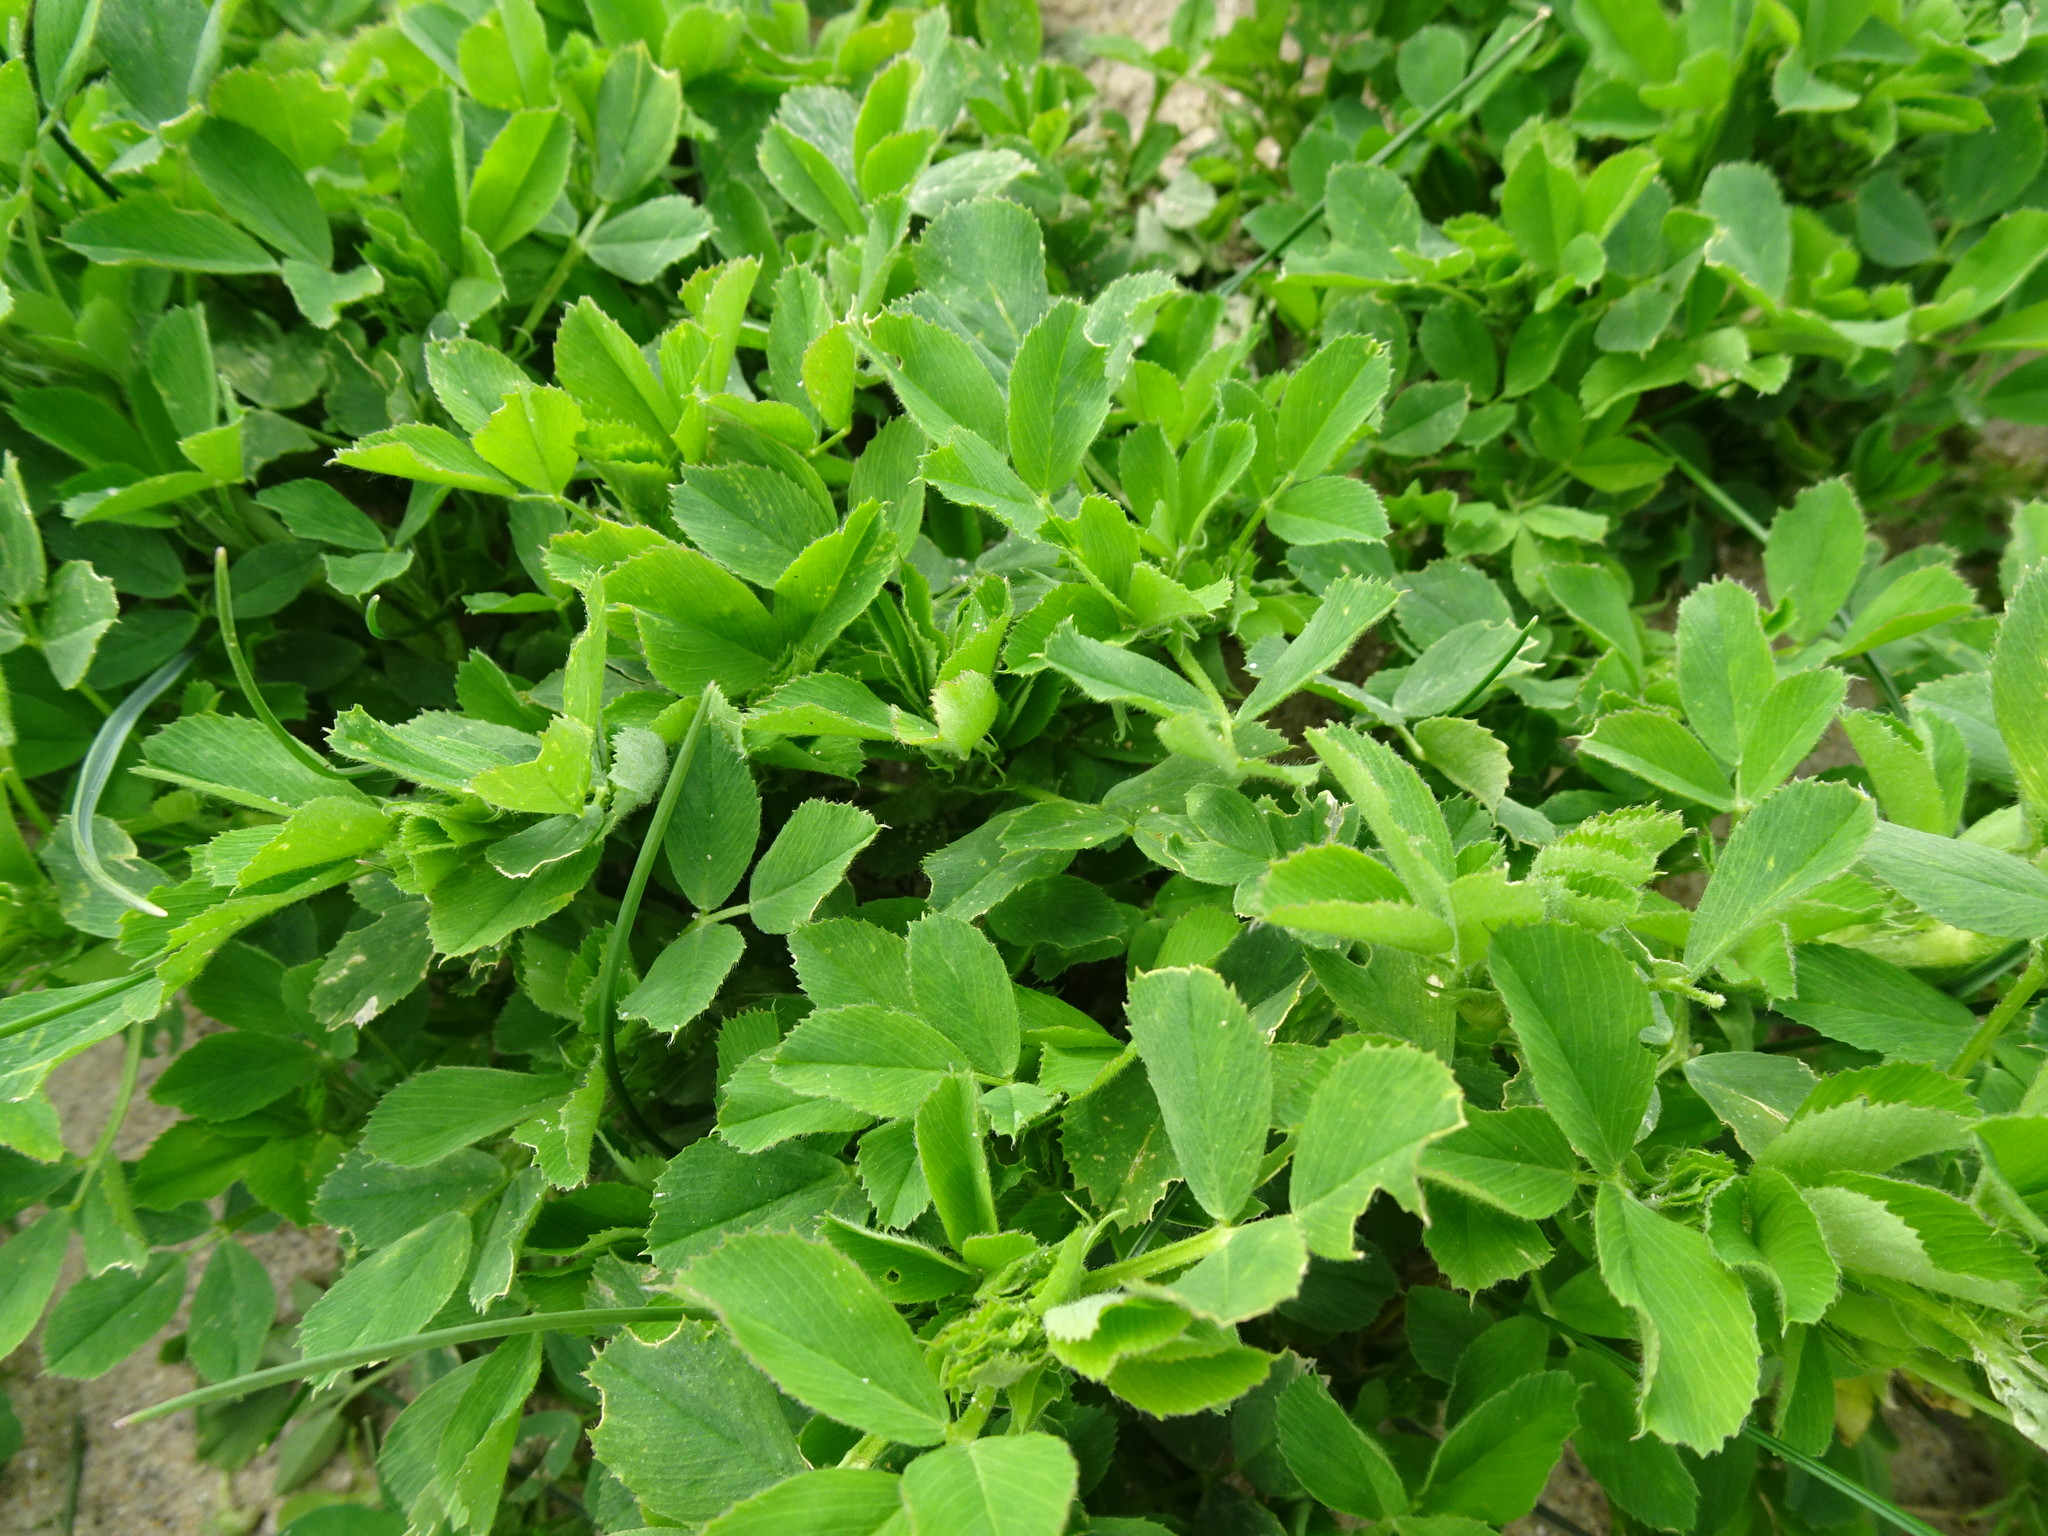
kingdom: Plantae
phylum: Tracheophyta
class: Magnoliopsida
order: Fabales
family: Fabaceae
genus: Medicago
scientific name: Medicago sativa
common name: Alfalfa
